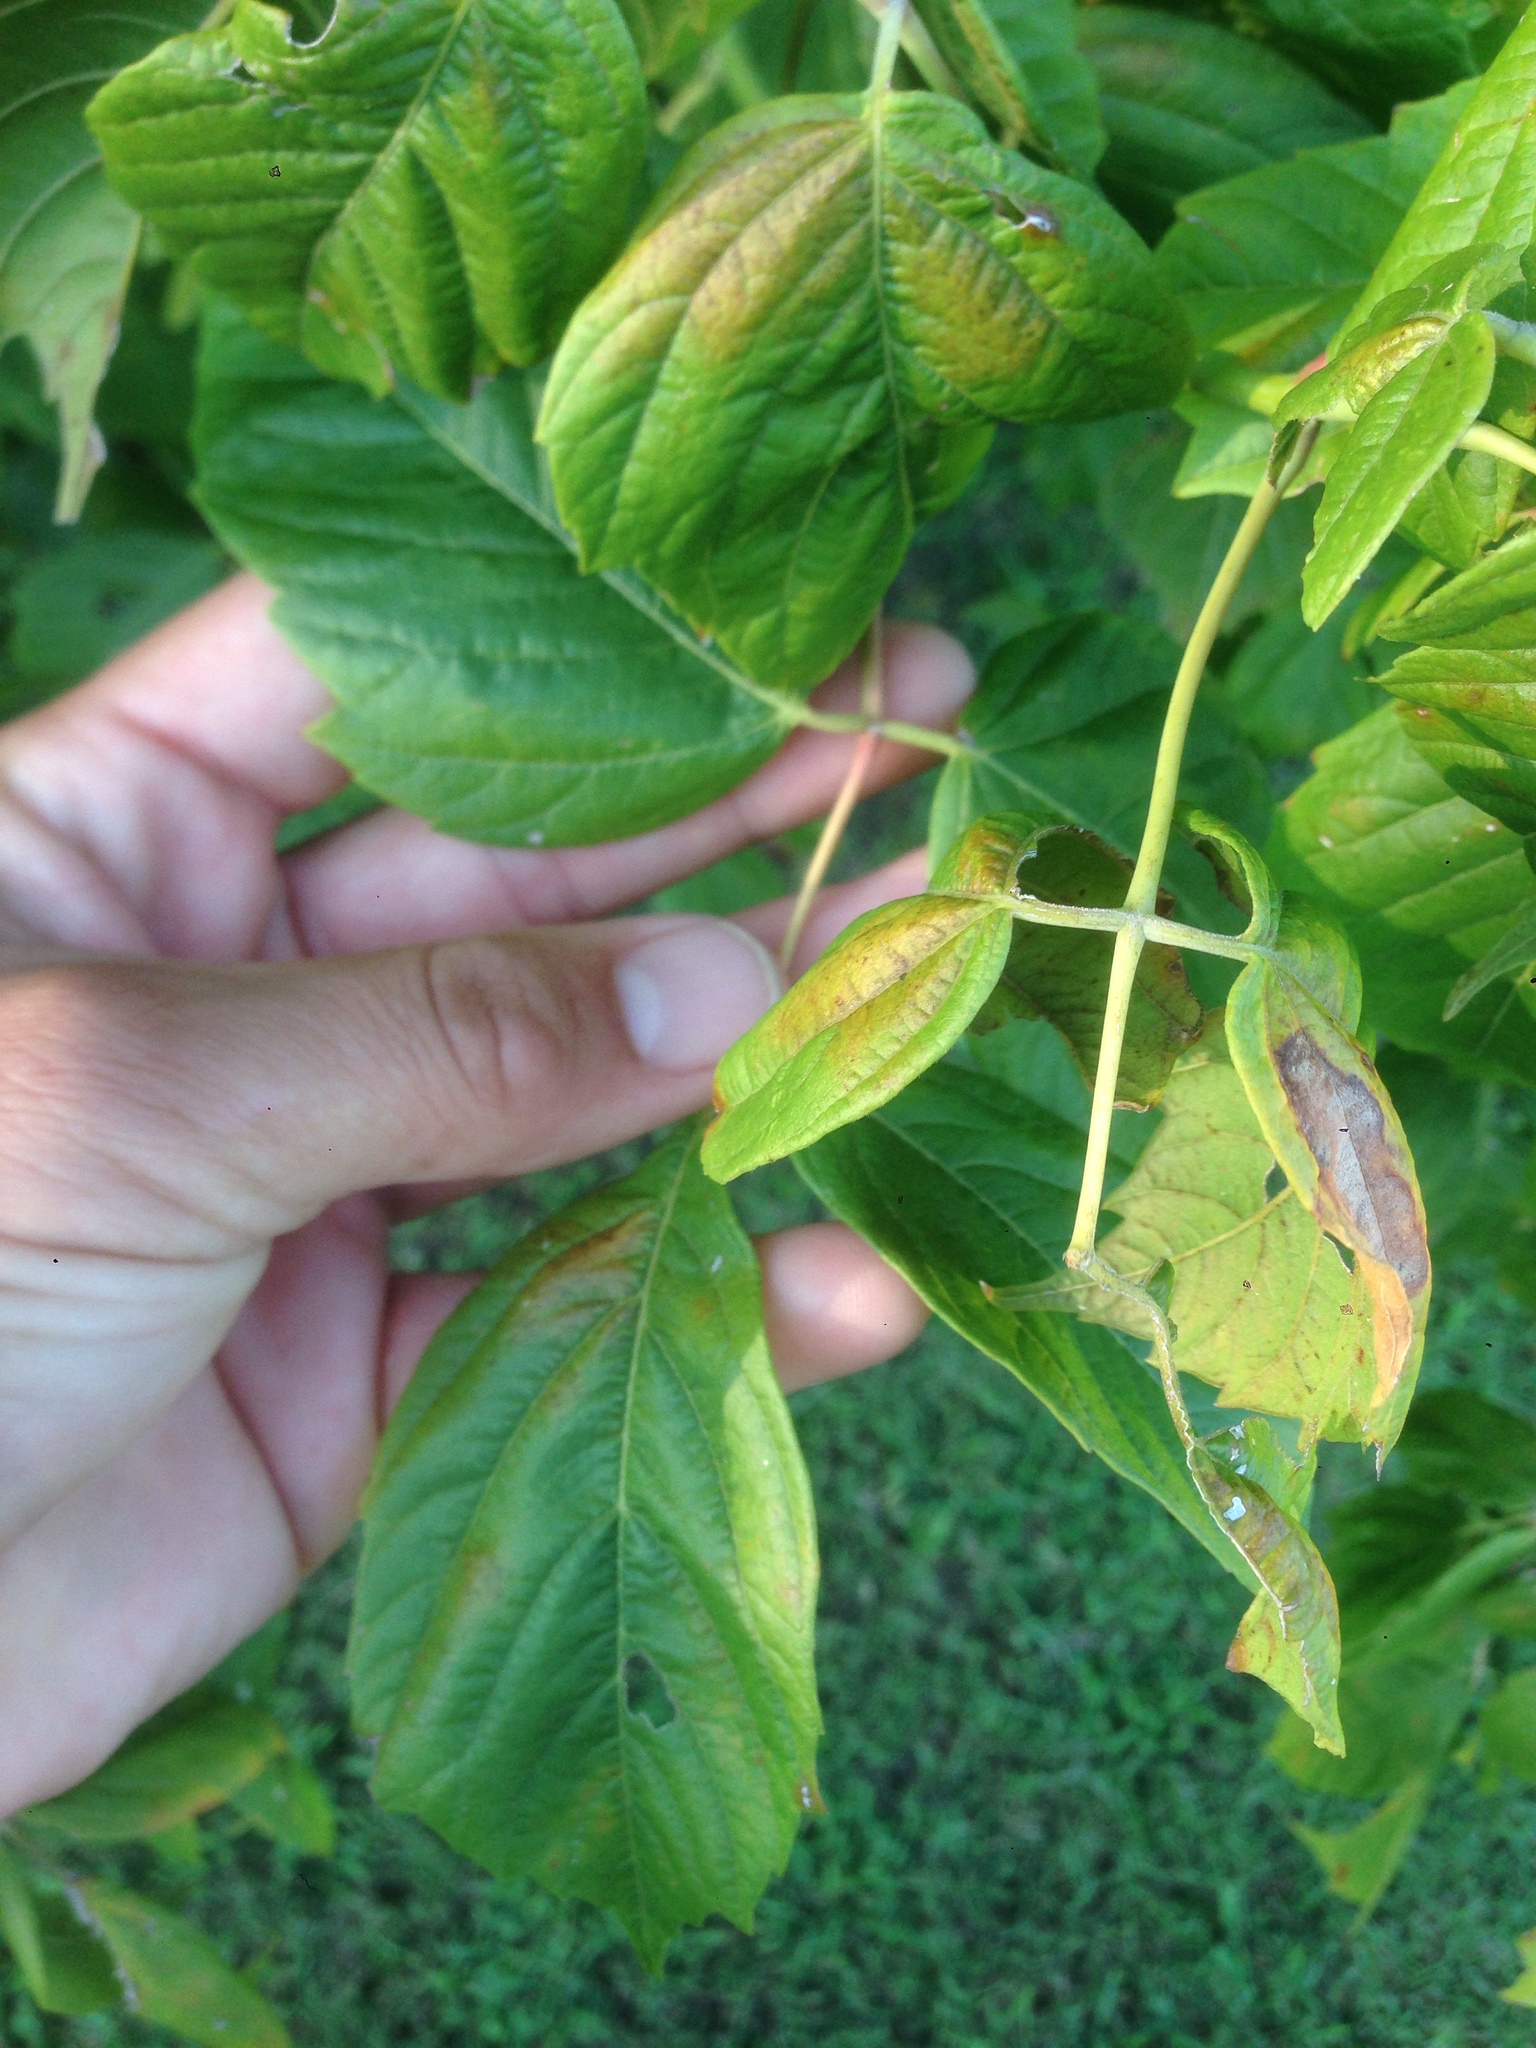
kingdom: Plantae
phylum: Tracheophyta
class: Magnoliopsida
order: Sapindales
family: Sapindaceae
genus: Acer
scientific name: Acer negundo
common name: Ashleaf maple
